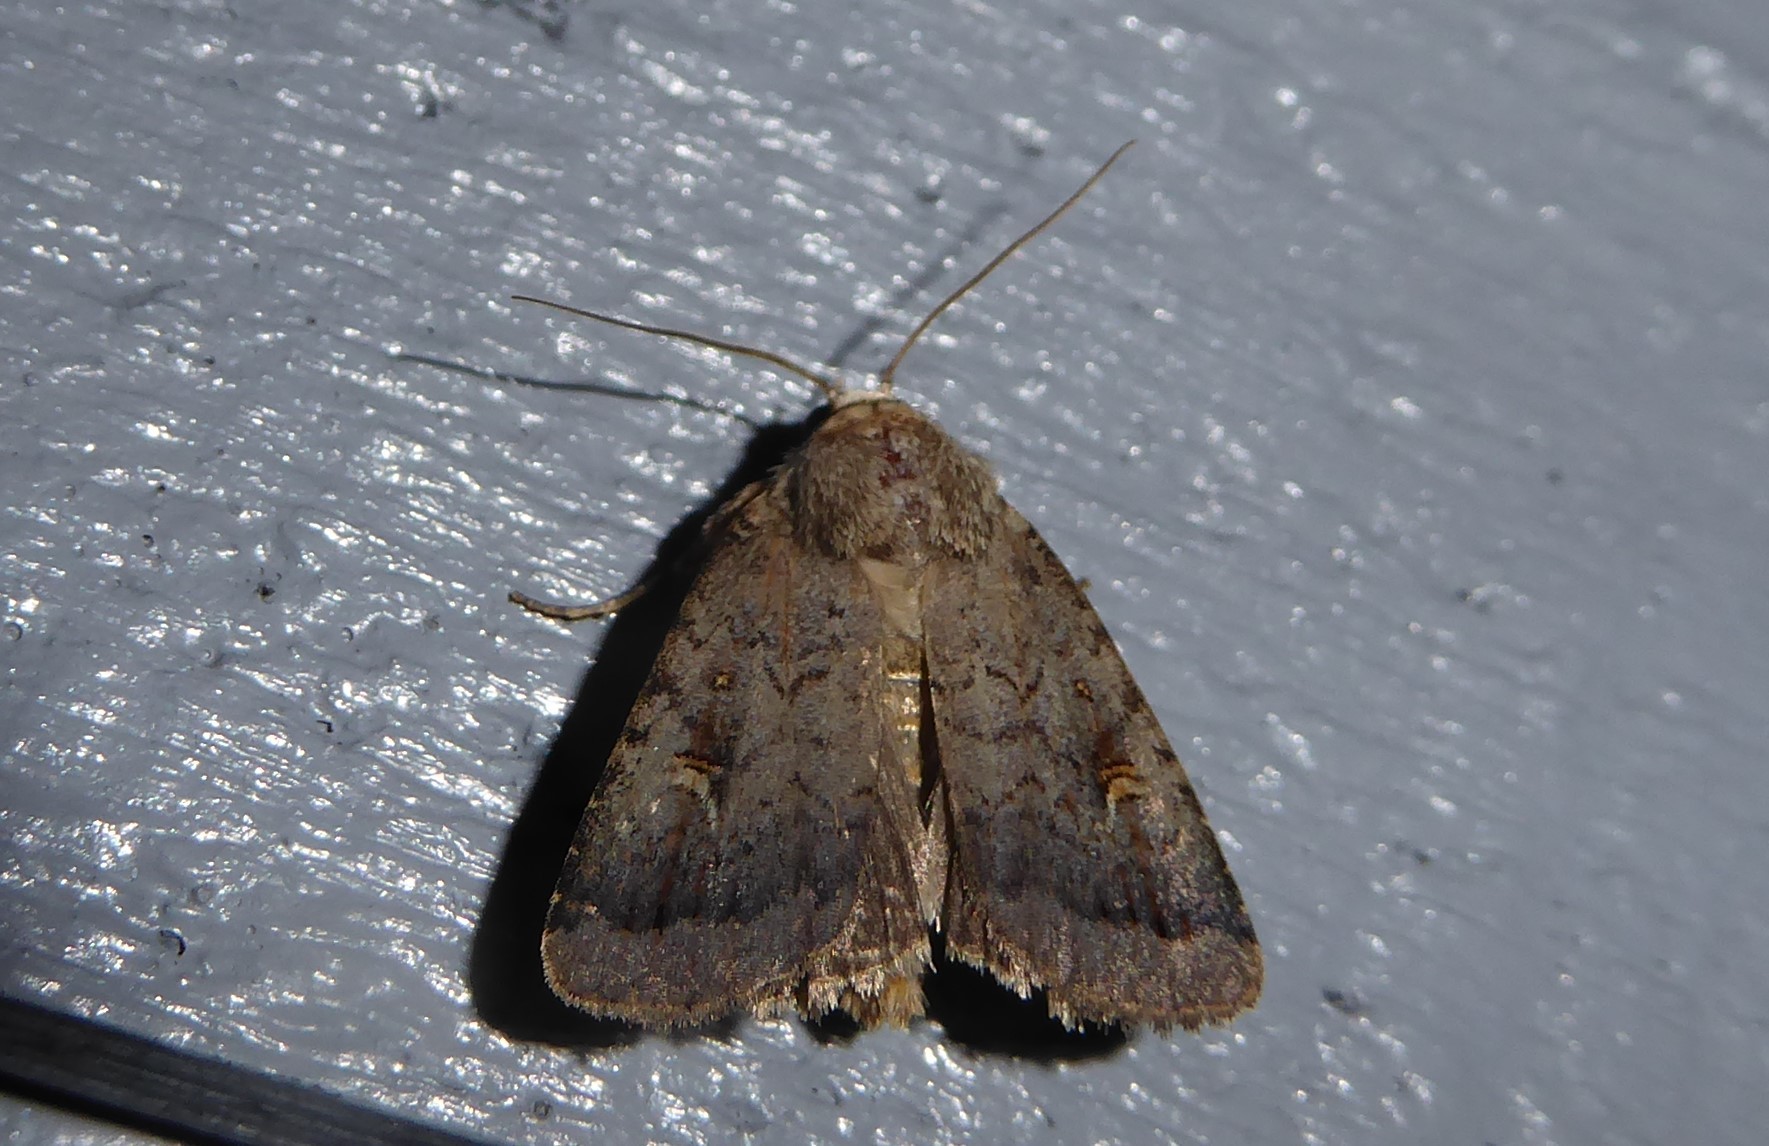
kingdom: Animalia
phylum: Arthropoda
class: Insecta
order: Lepidoptera
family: Noctuidae
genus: Proteuxoa
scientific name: Proteuxoa tetronycha
